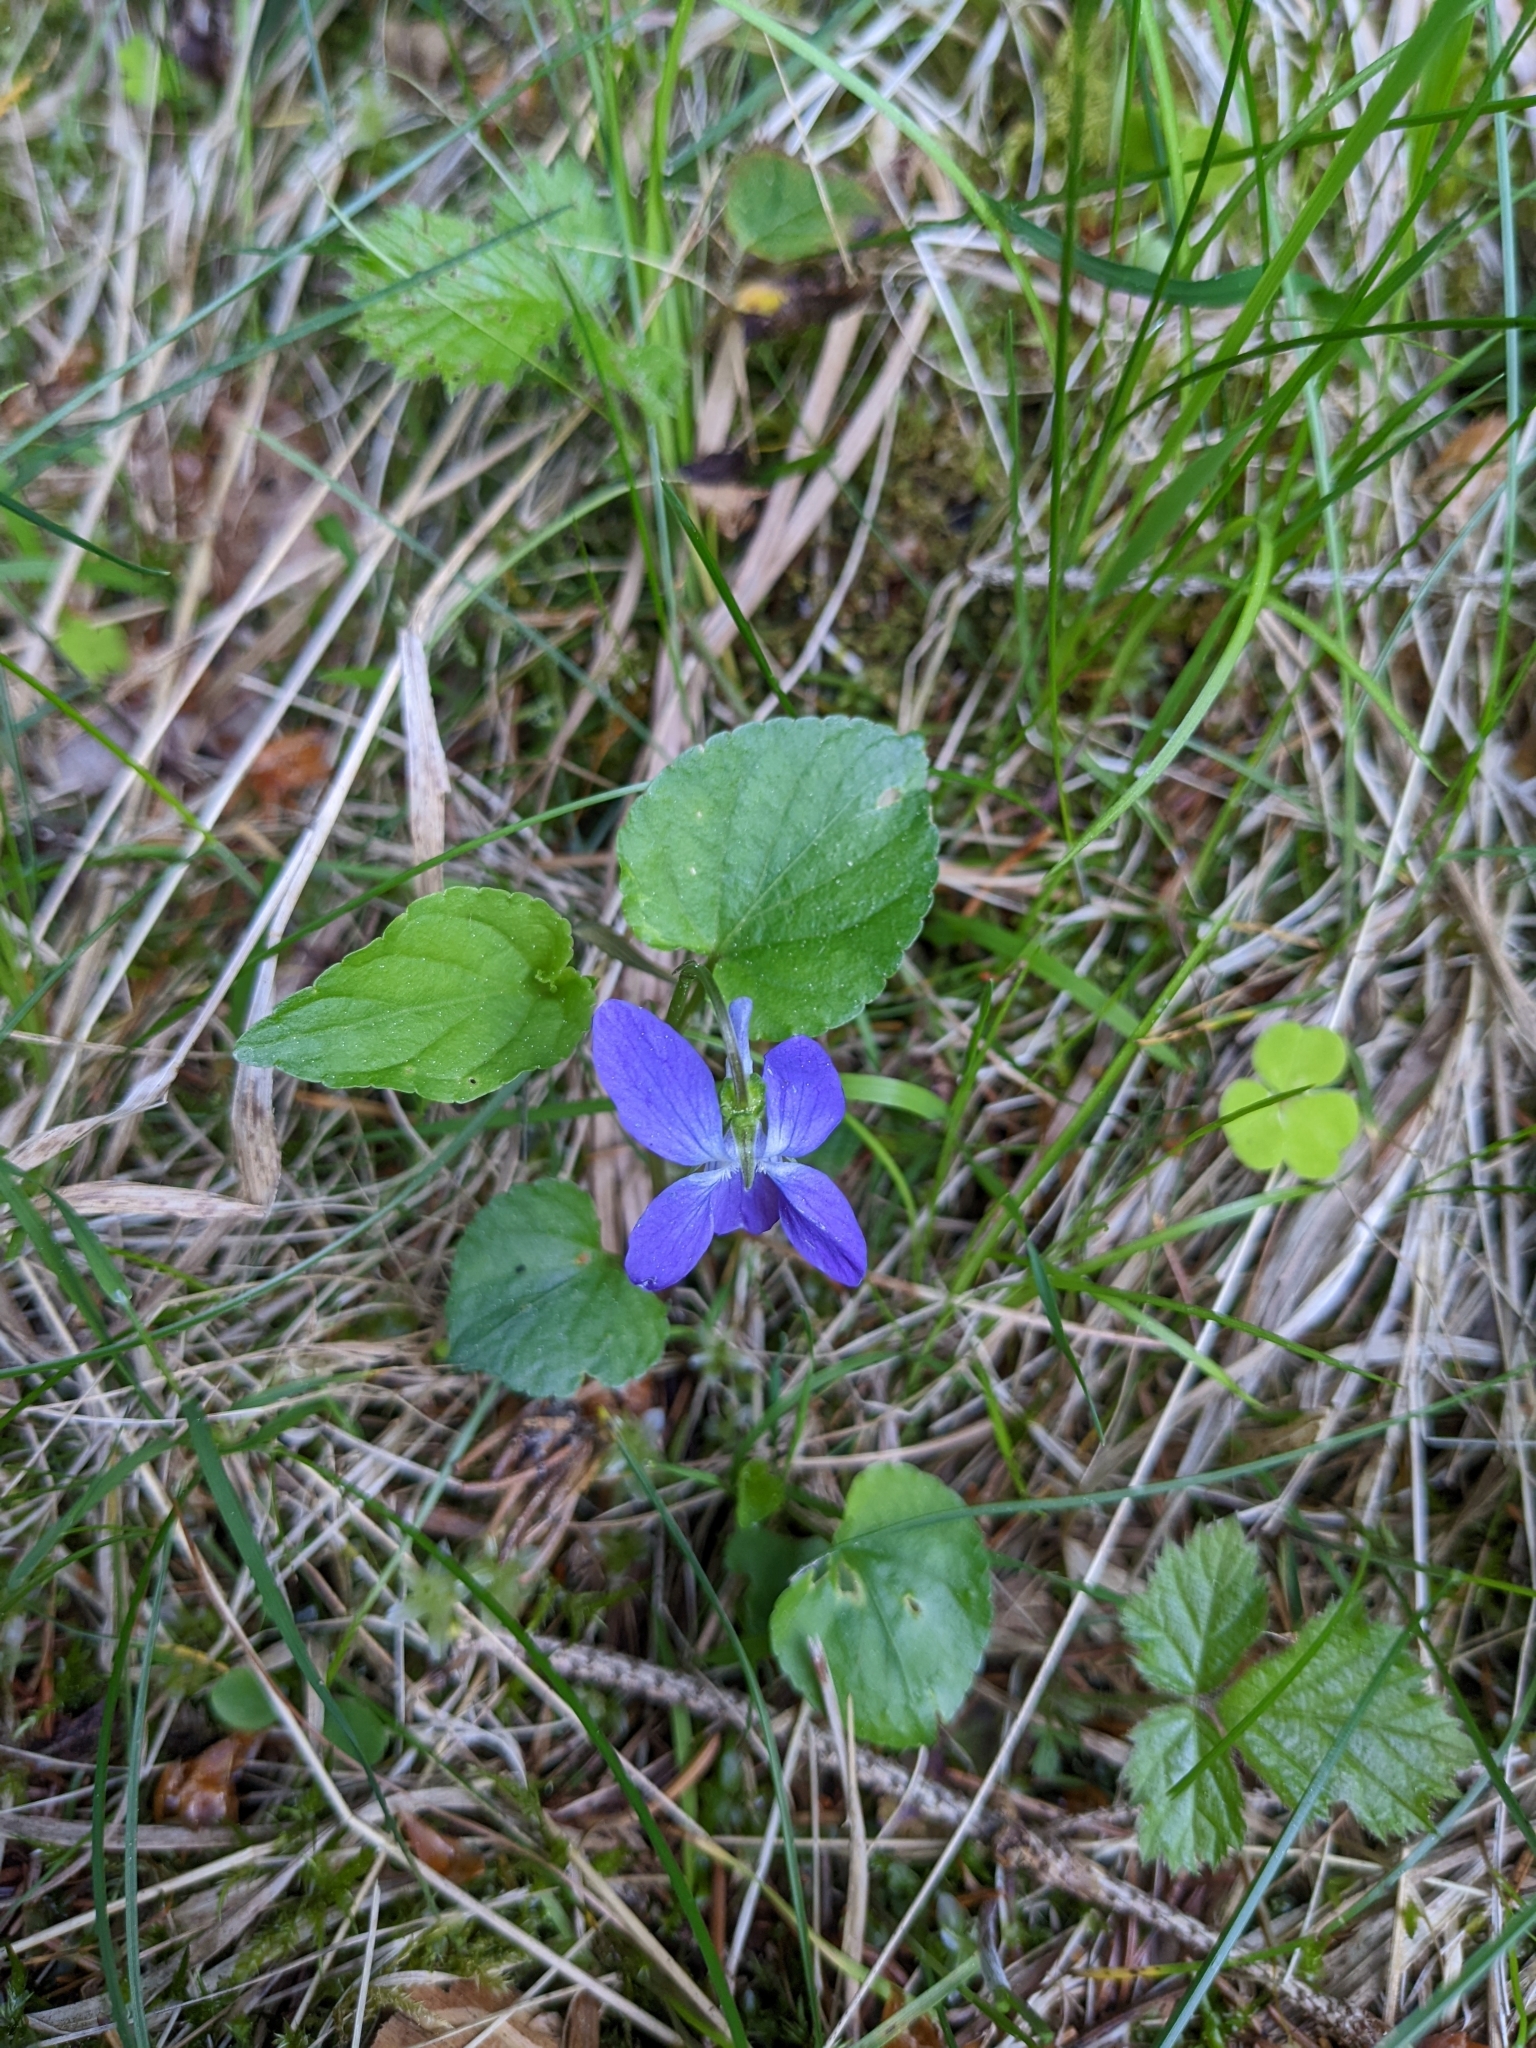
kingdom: Plantae
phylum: Tracheophyta
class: Magnoliopsida
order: Malpighiales
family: Violaceae
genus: Viola
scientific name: Viola reichenbachiana
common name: Early dog-violet
